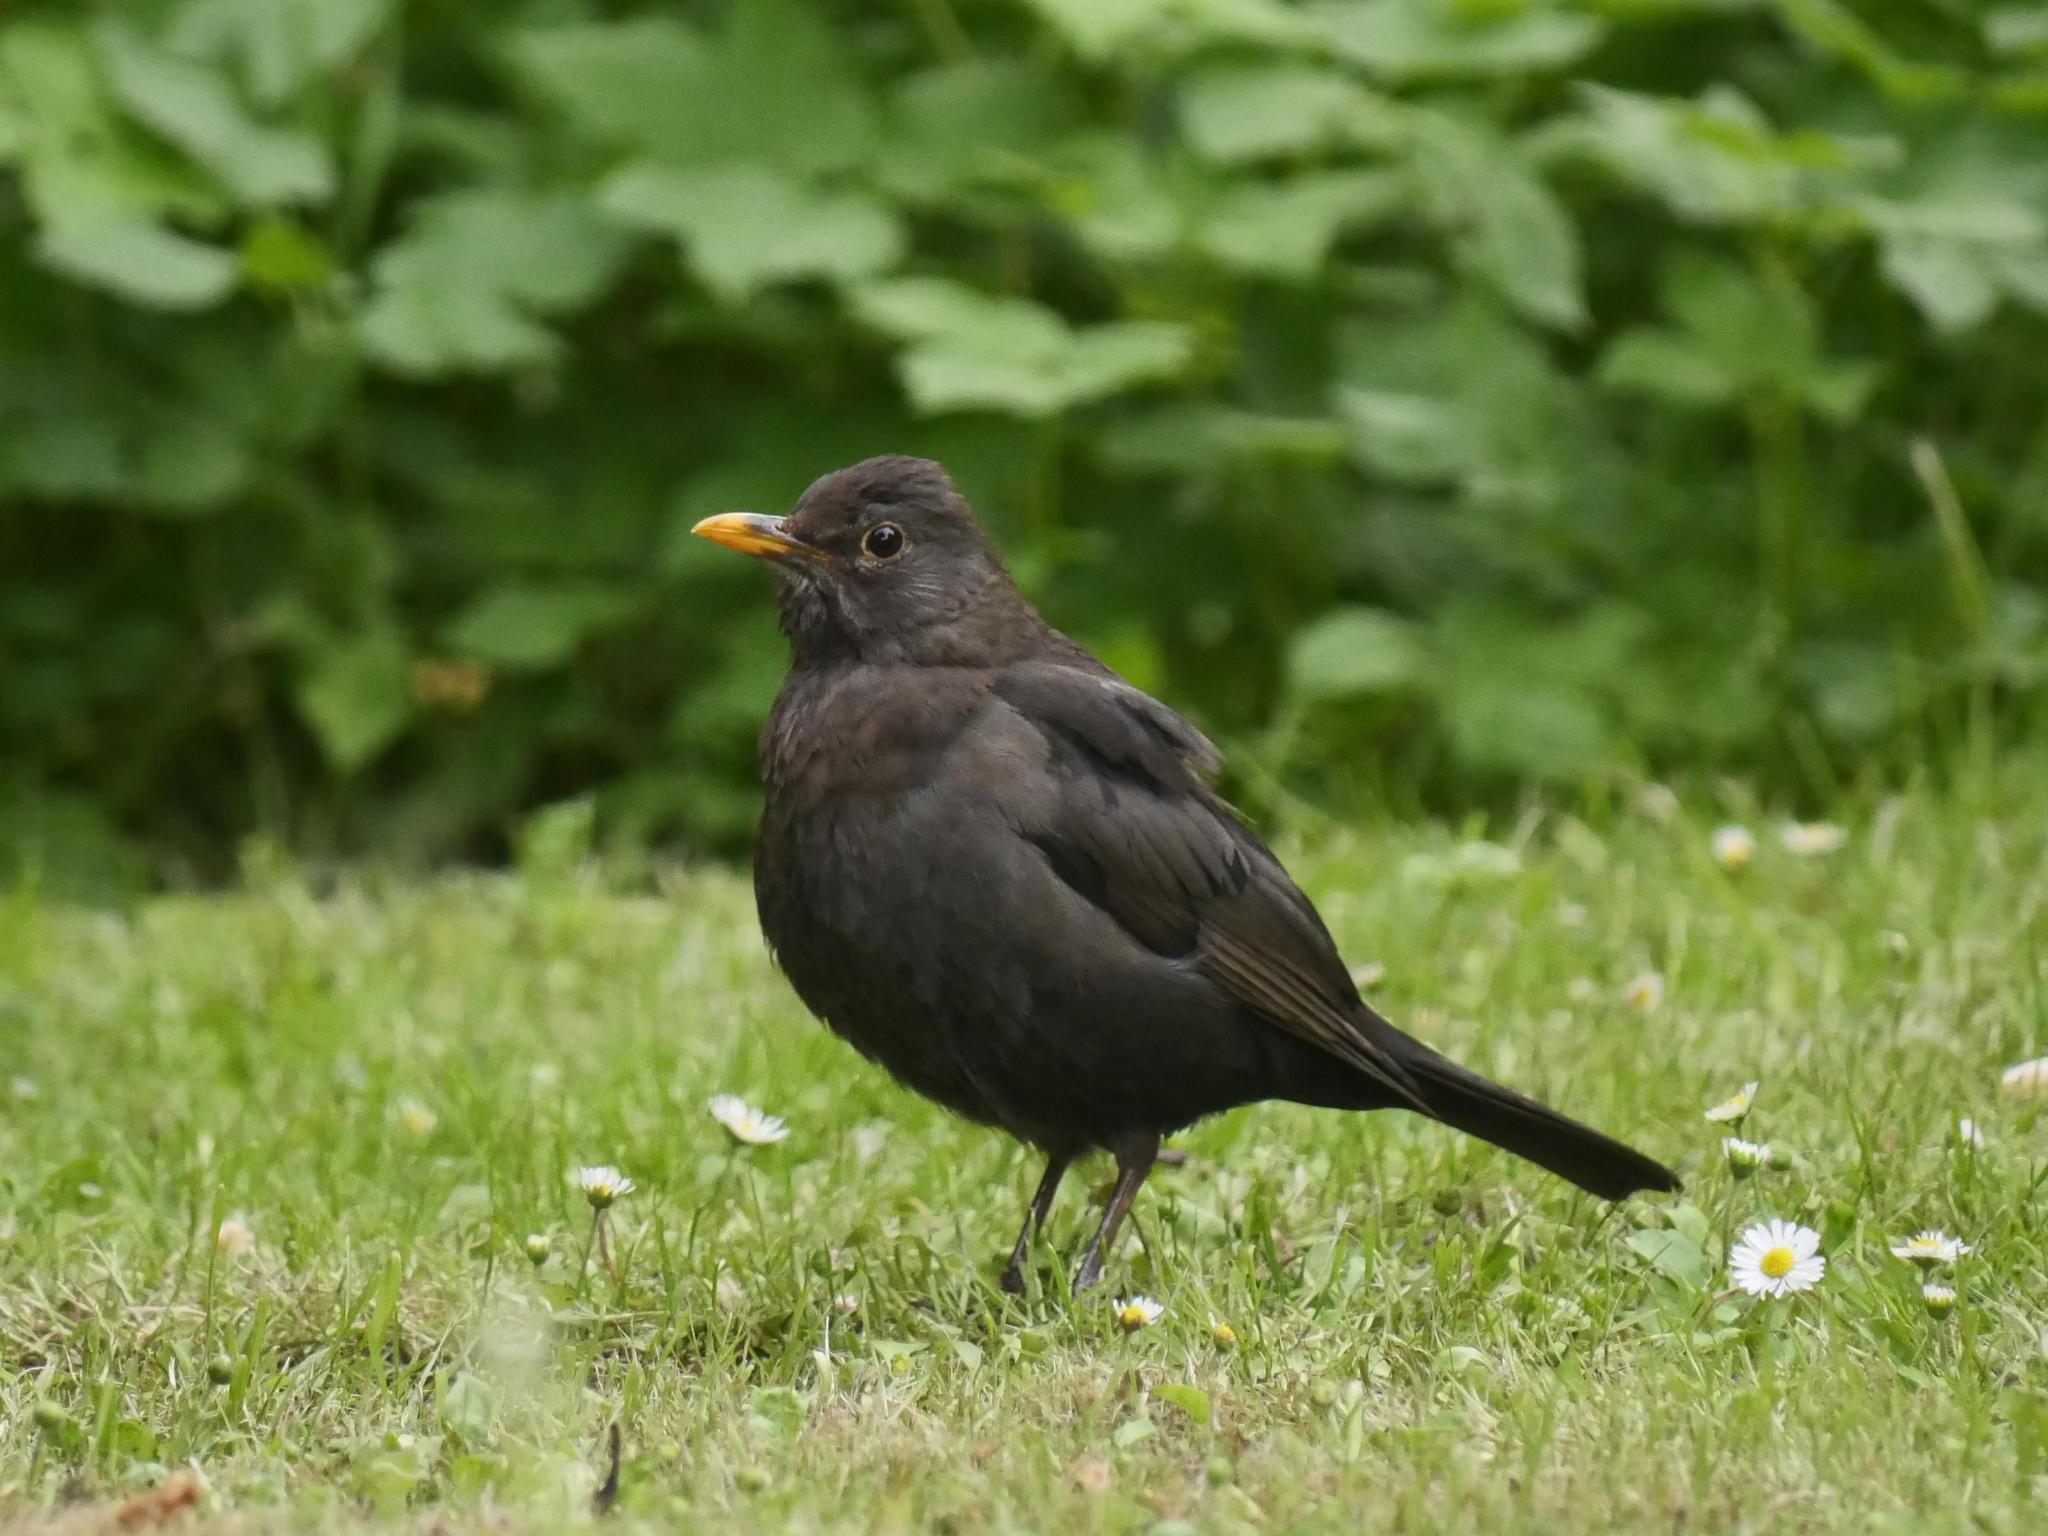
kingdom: Animalia
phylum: Chordata
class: Aves
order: Passeriformes
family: Turdidae
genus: Turdus
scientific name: Turdus merula
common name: Common blackbird
